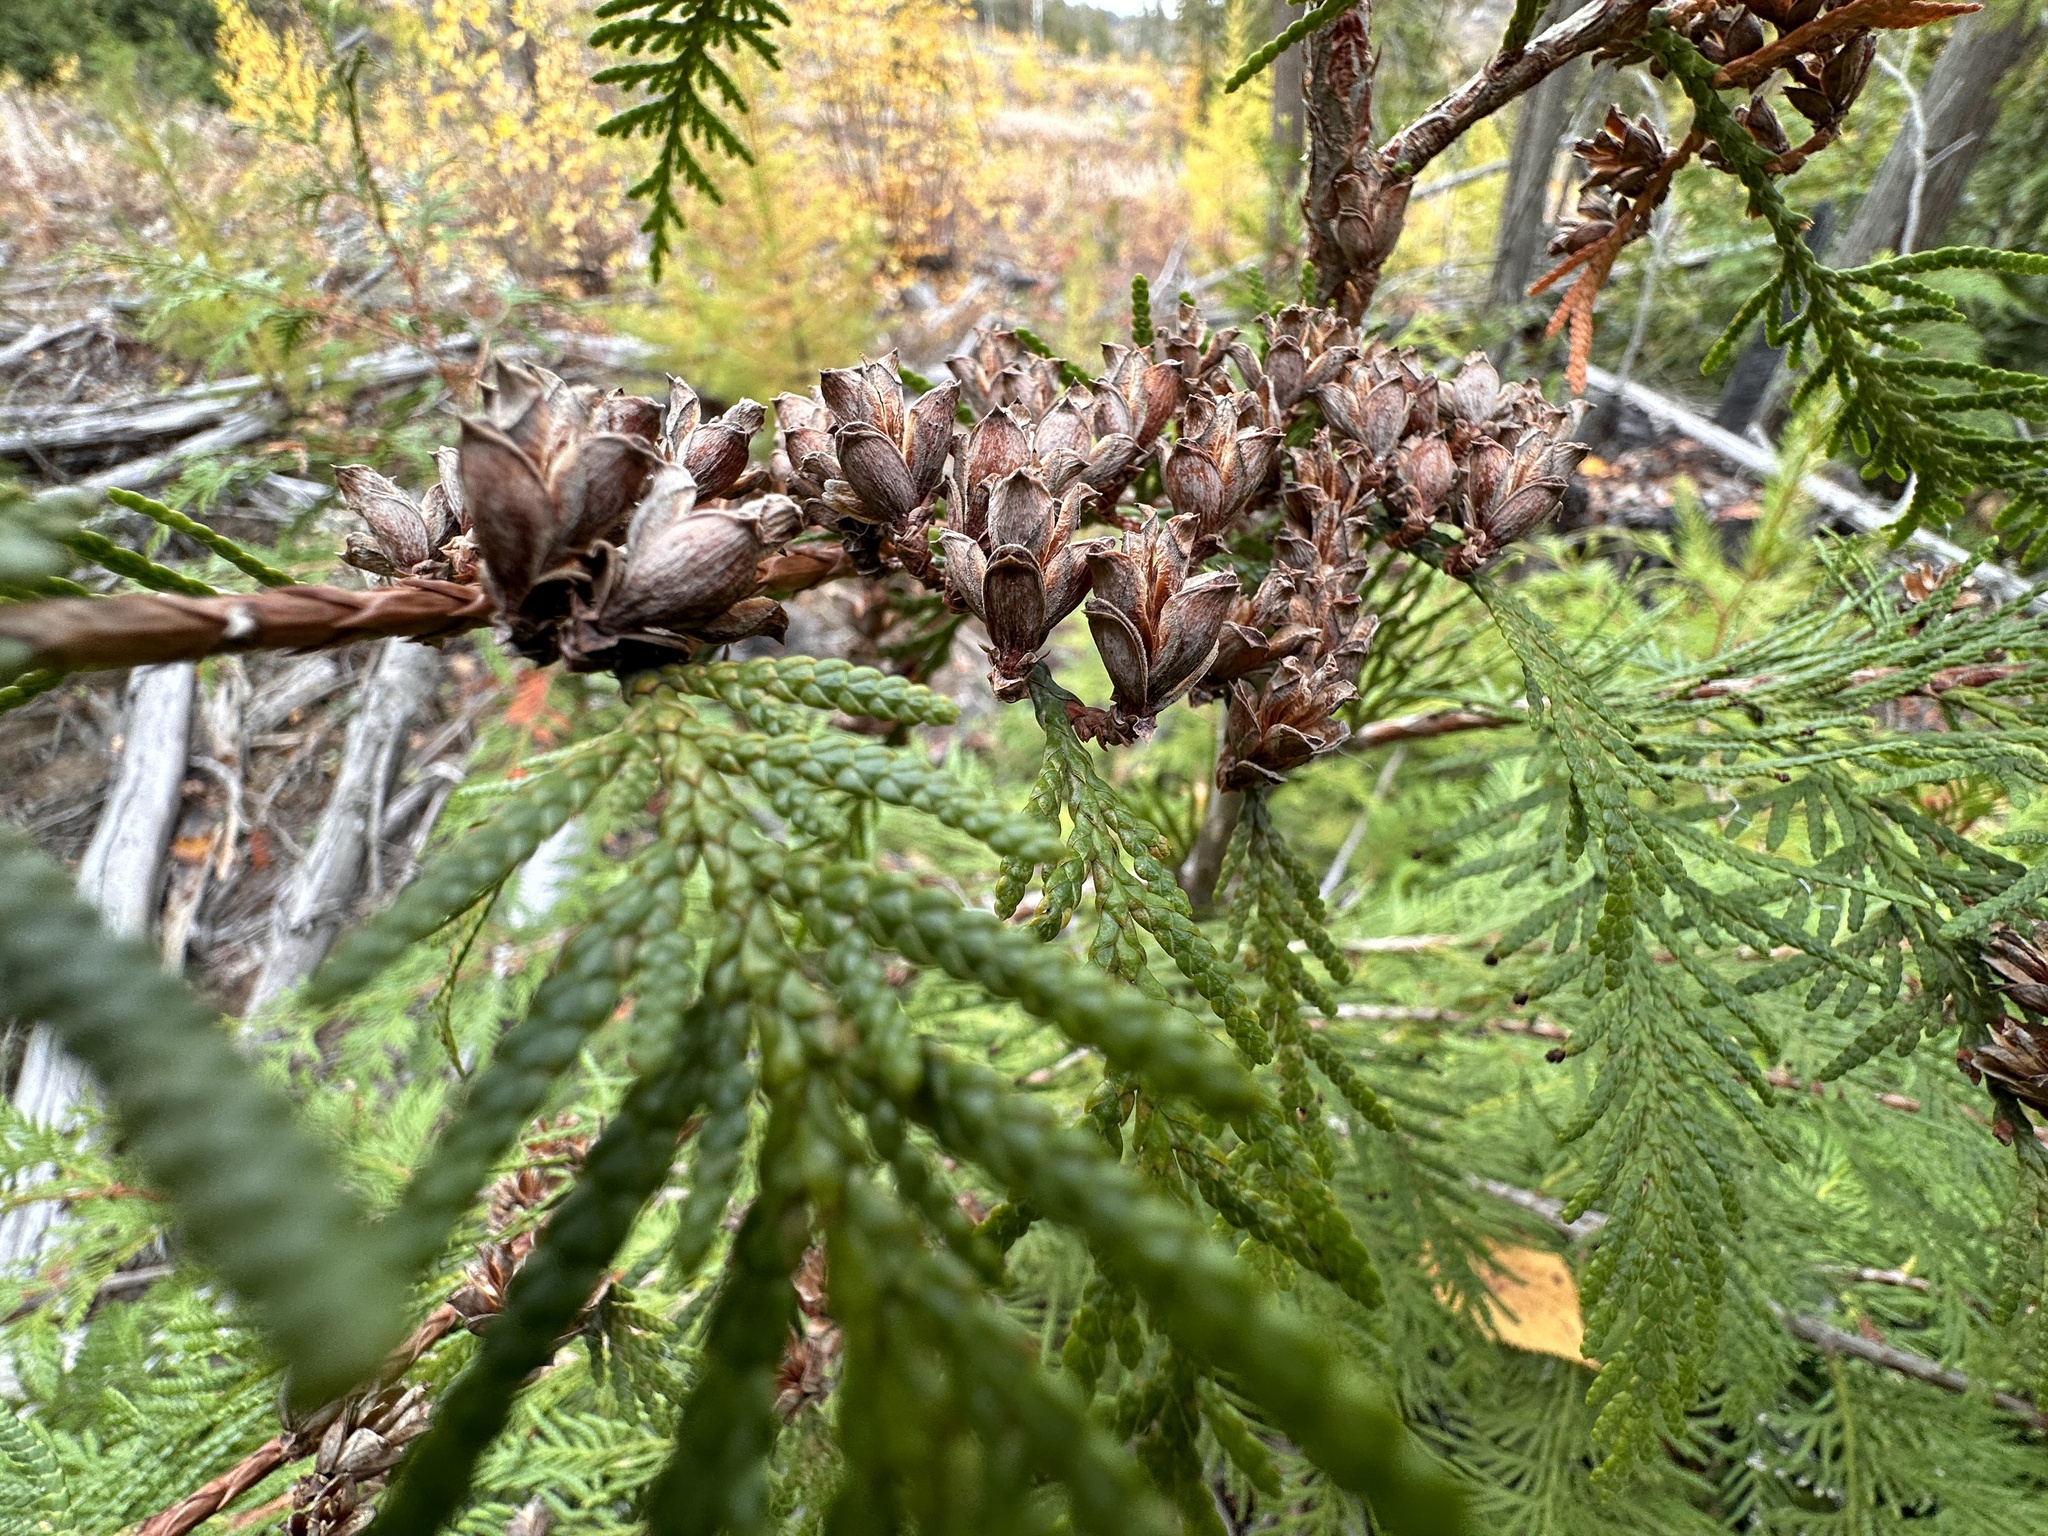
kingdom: Plantae
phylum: Tracheophyta
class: Pinopsida
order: Pinales
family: Cupressaceae
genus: Thuja
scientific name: Thuja plicata
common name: Western red-cedar
